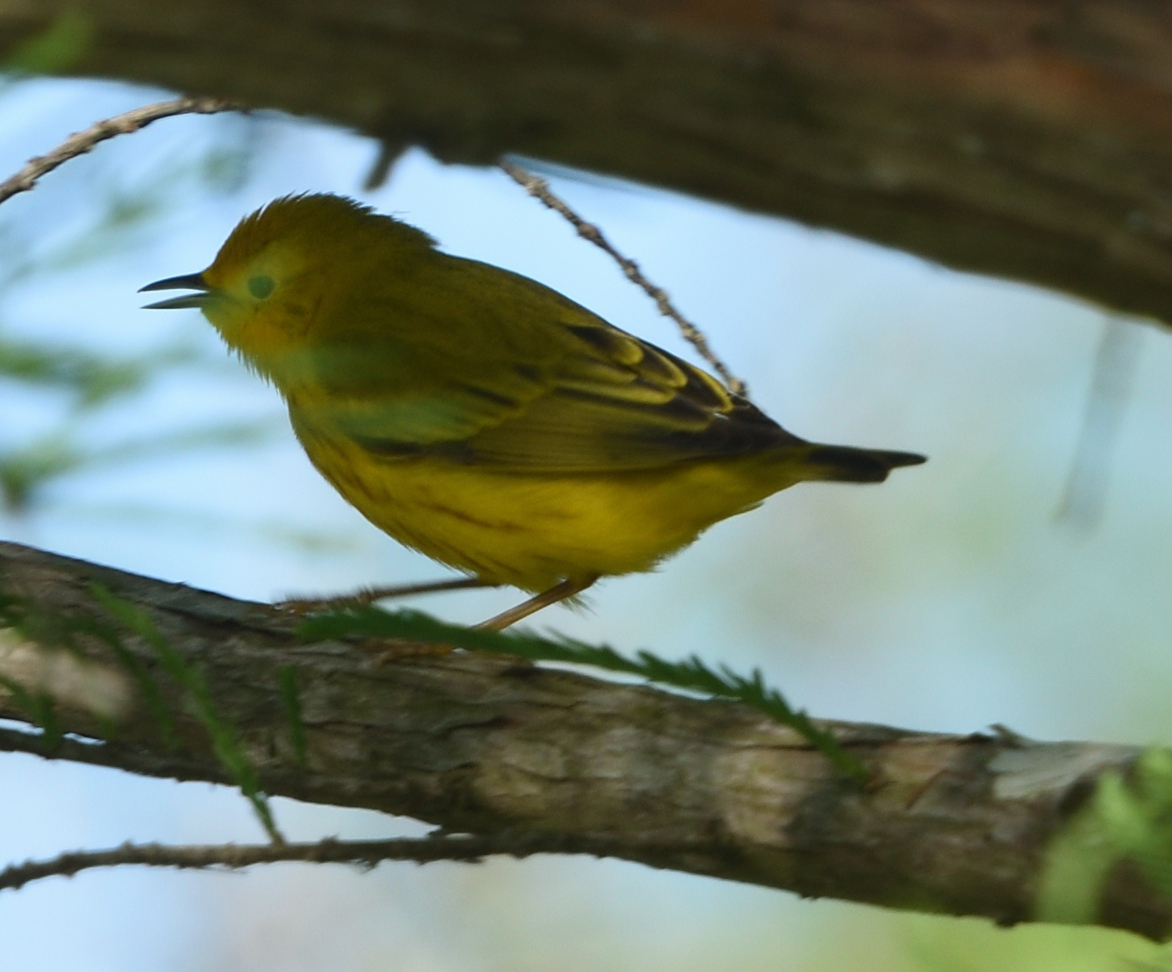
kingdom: Animalia
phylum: Chordata
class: Aves
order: Passeriformes
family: Parulidae
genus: Setophaga
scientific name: Setophaga petechia
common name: Yellow warbler
